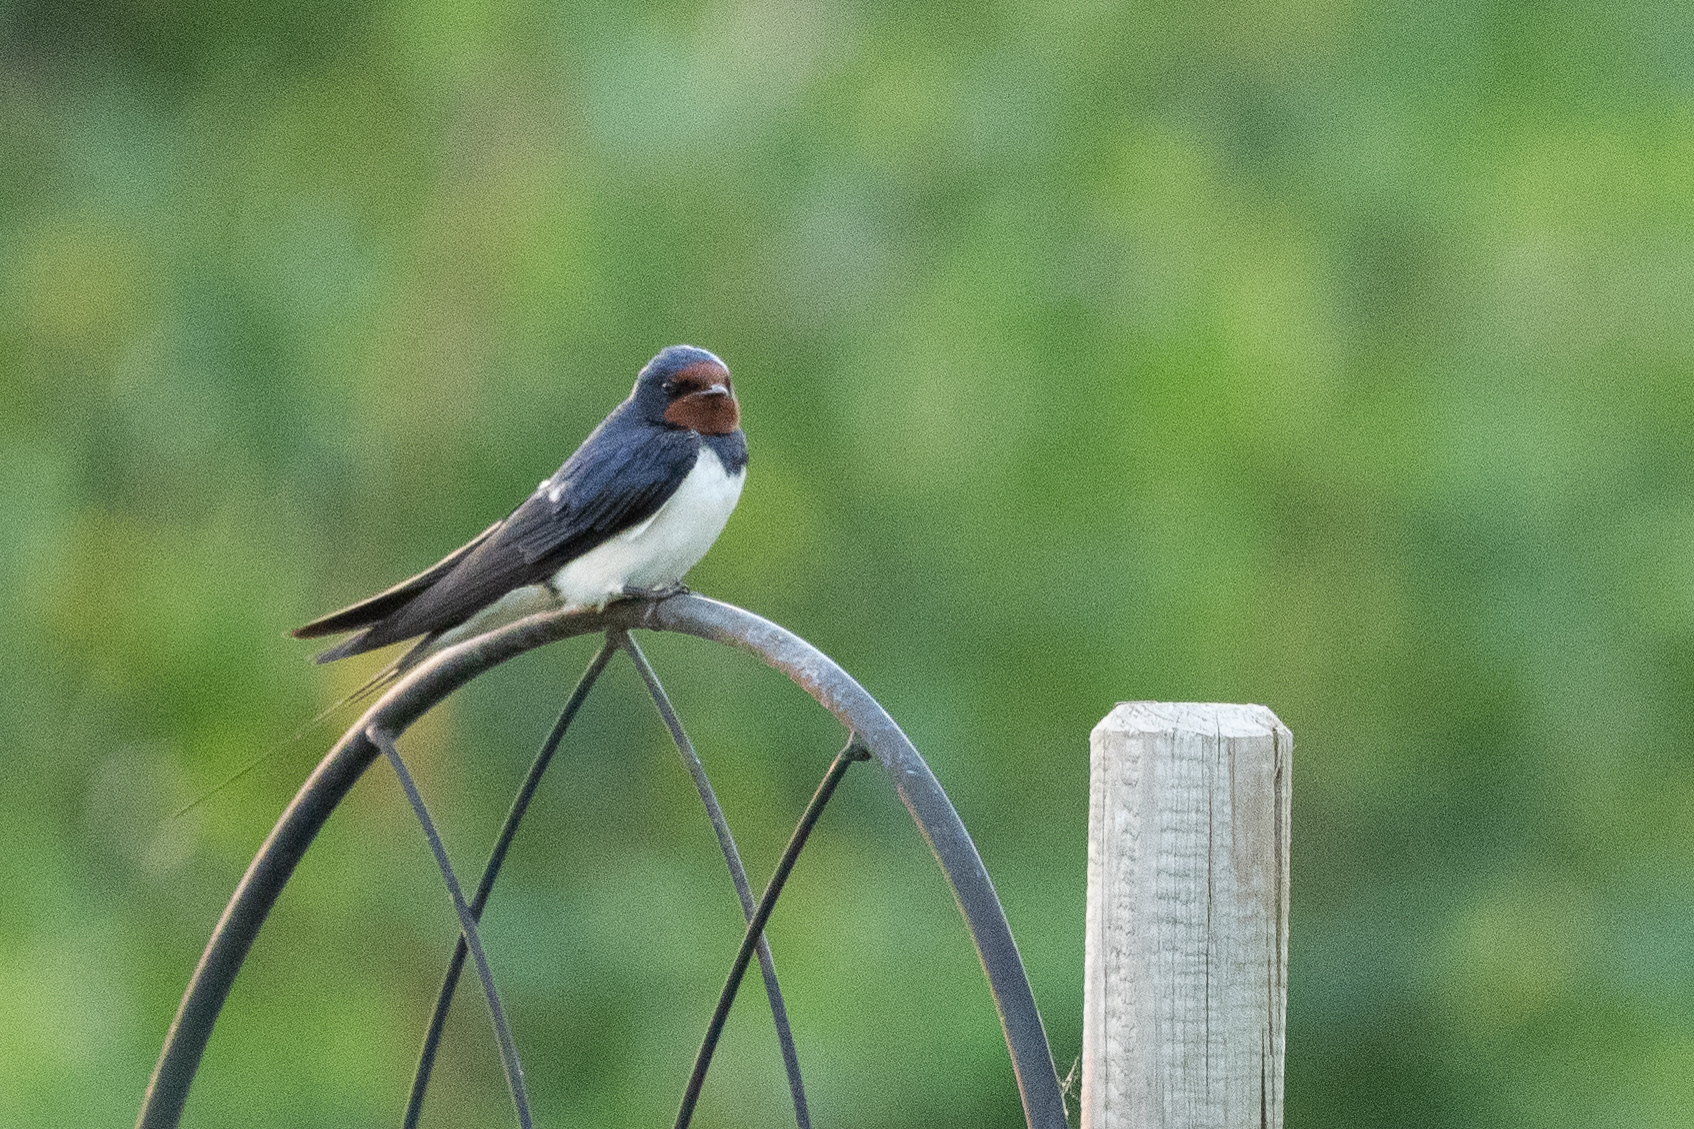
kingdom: Animalia
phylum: Chordata
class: Aves
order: Passeriformes
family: Hirundinidae
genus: Hirundo
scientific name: Hirundo rustica
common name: Barn swallow
